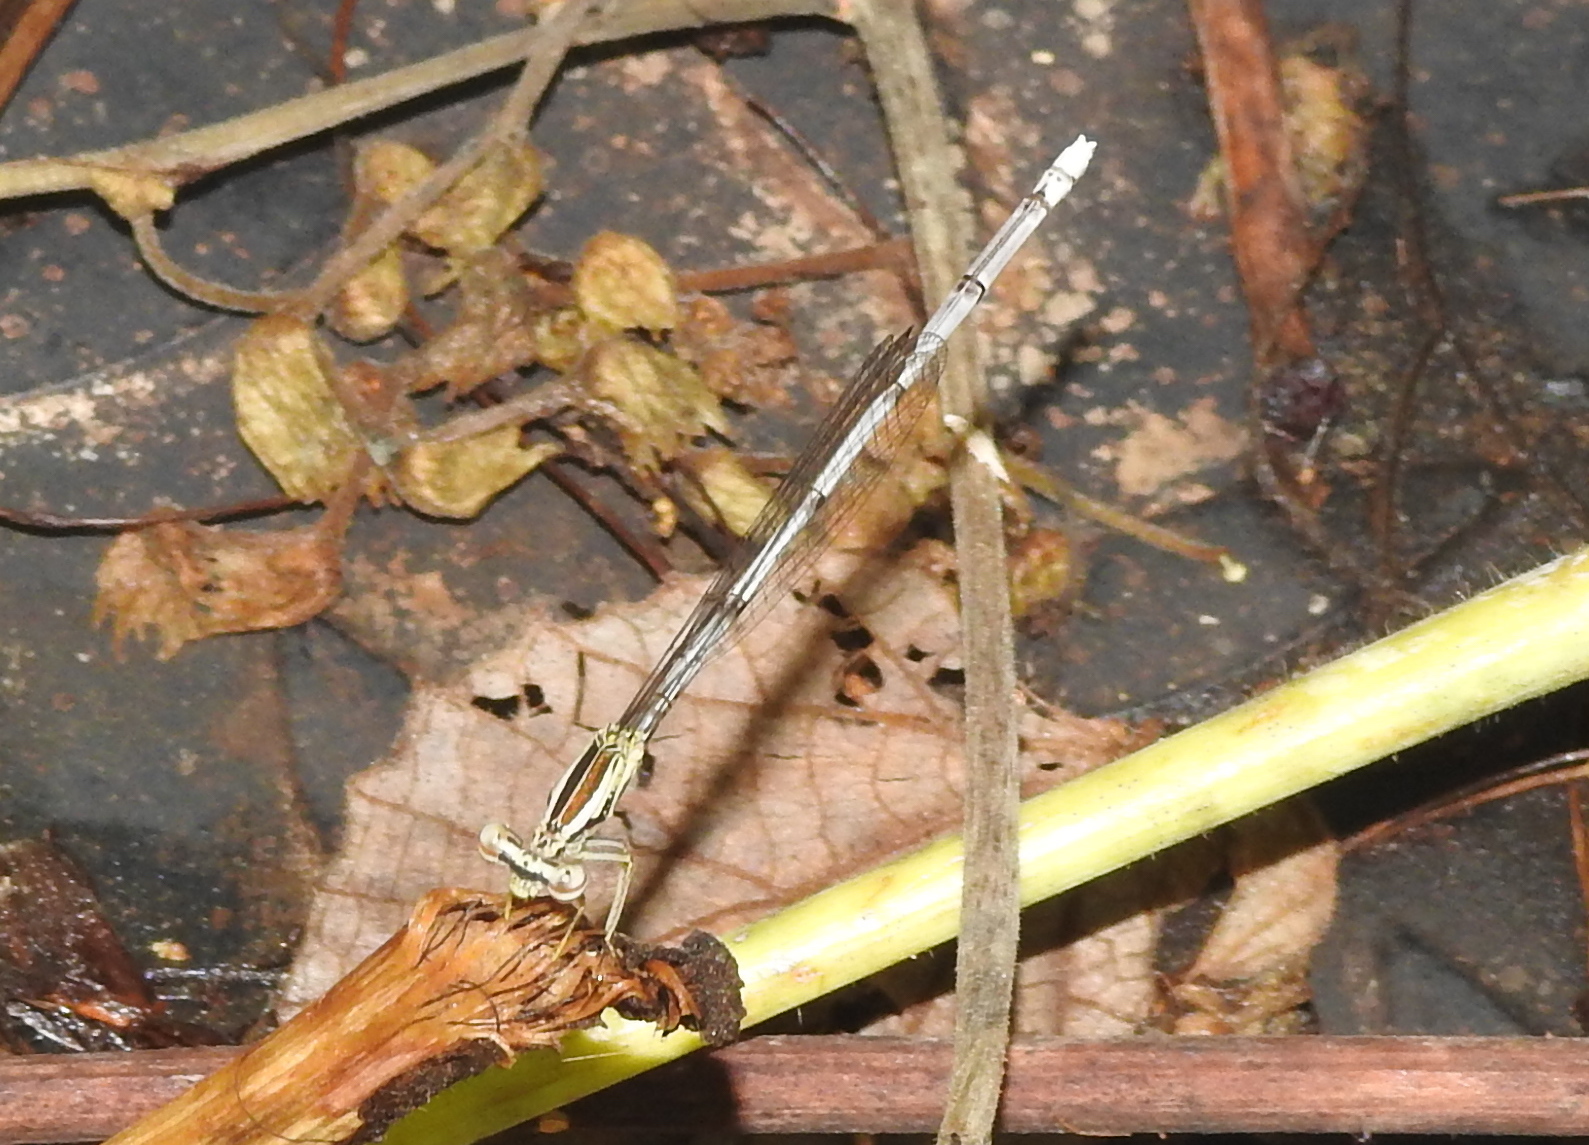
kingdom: Animalia
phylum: Arthropoda
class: Insecta
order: Odonata
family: Platycnemididae
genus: Copera
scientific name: Copera marginipes
